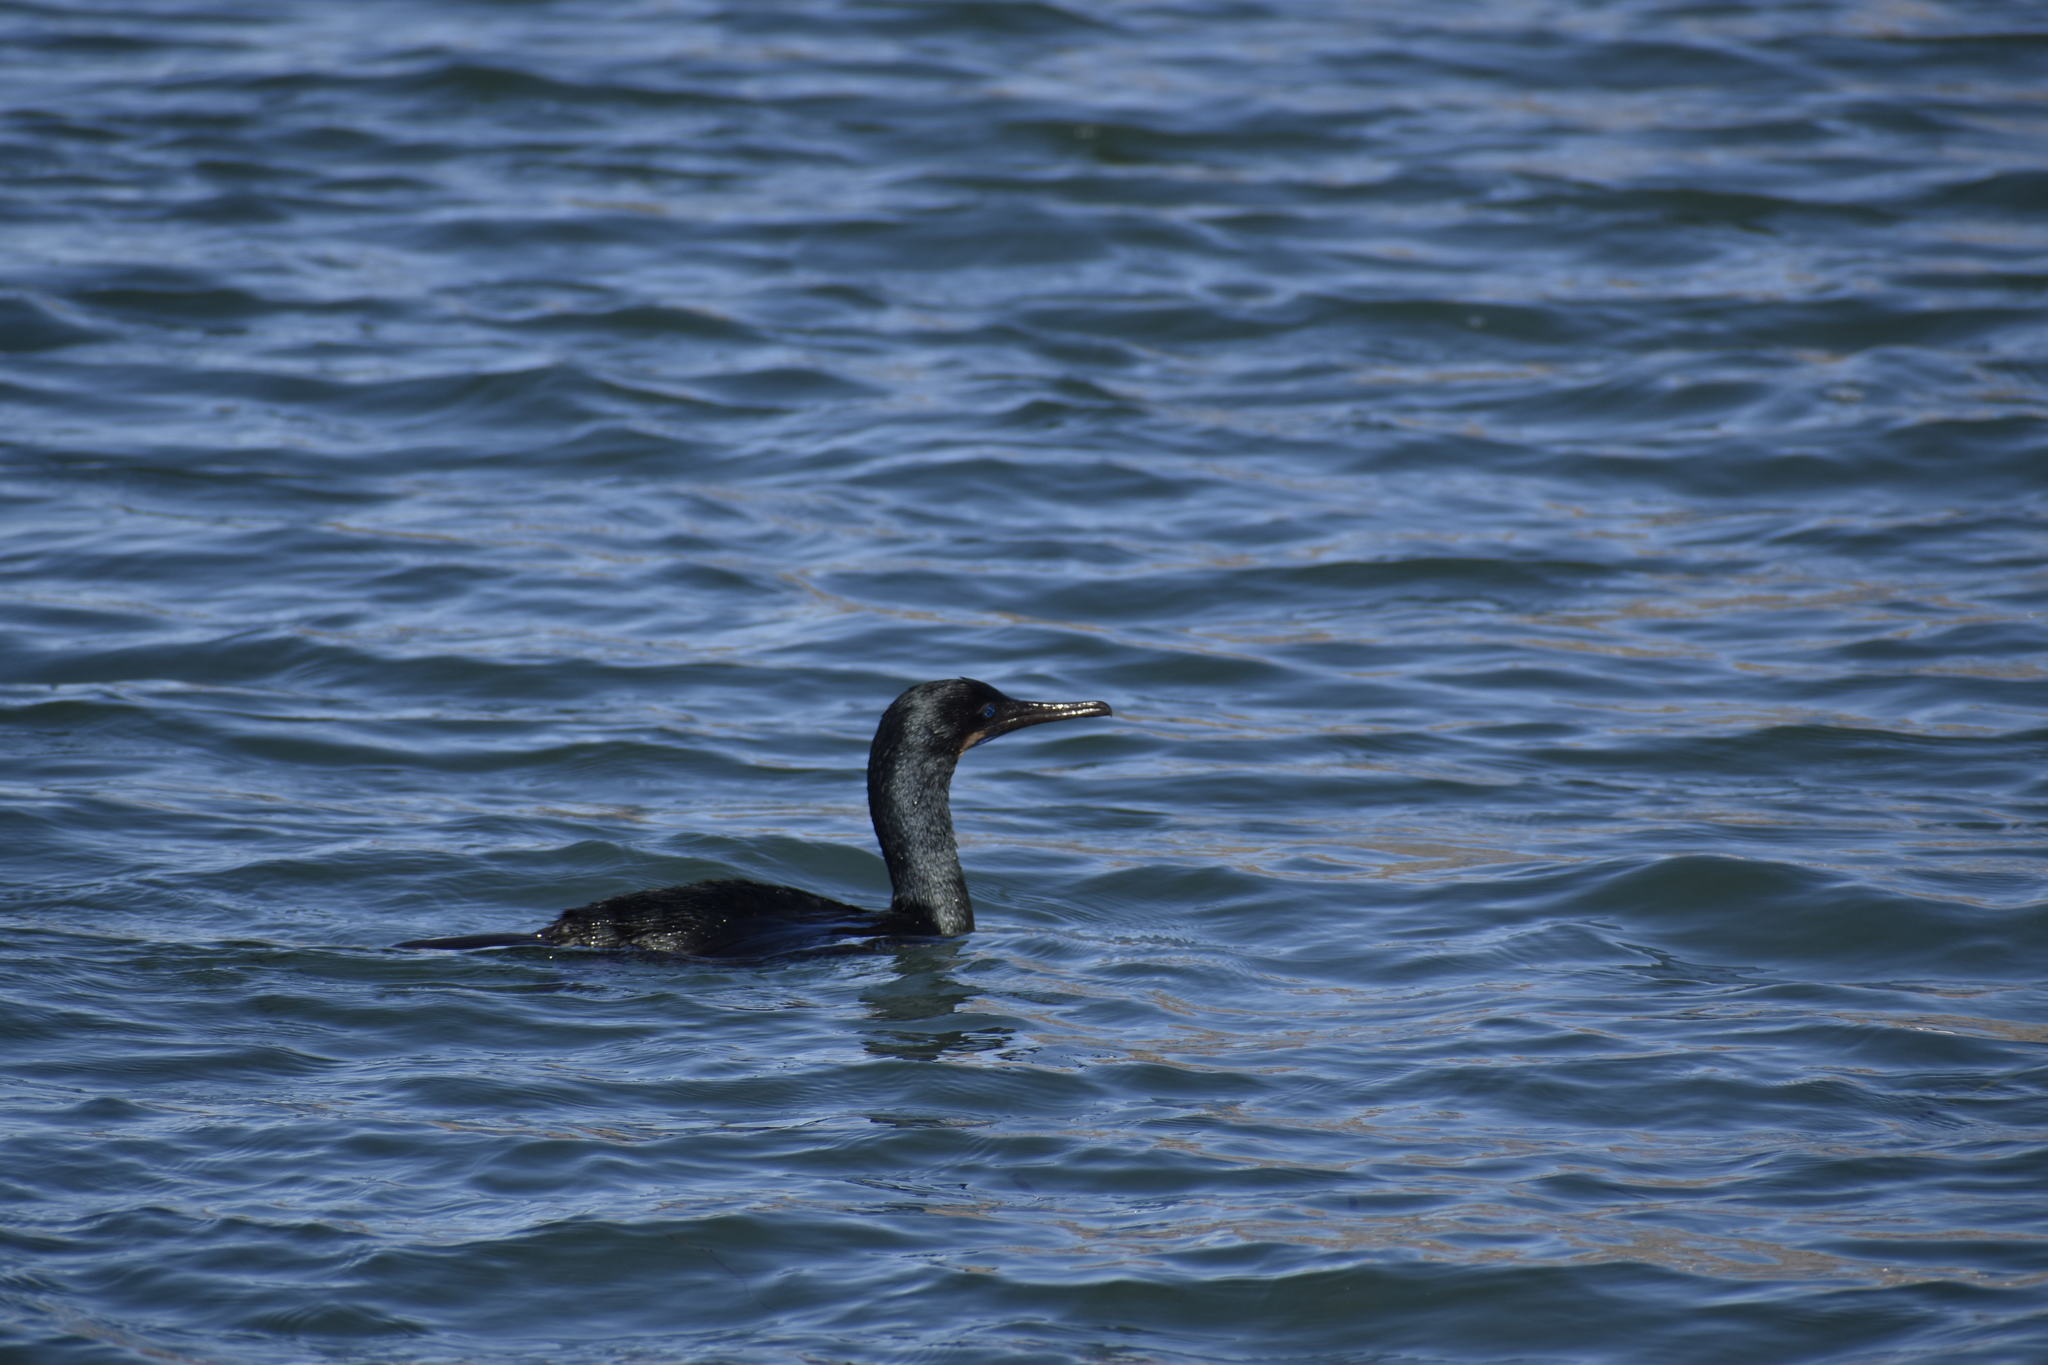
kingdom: Animalia
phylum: Chordata
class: Aves
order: Suliformes
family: Phalacrocoracidae
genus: Urile
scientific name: Urile penicillatus
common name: Brandt's cormorant
